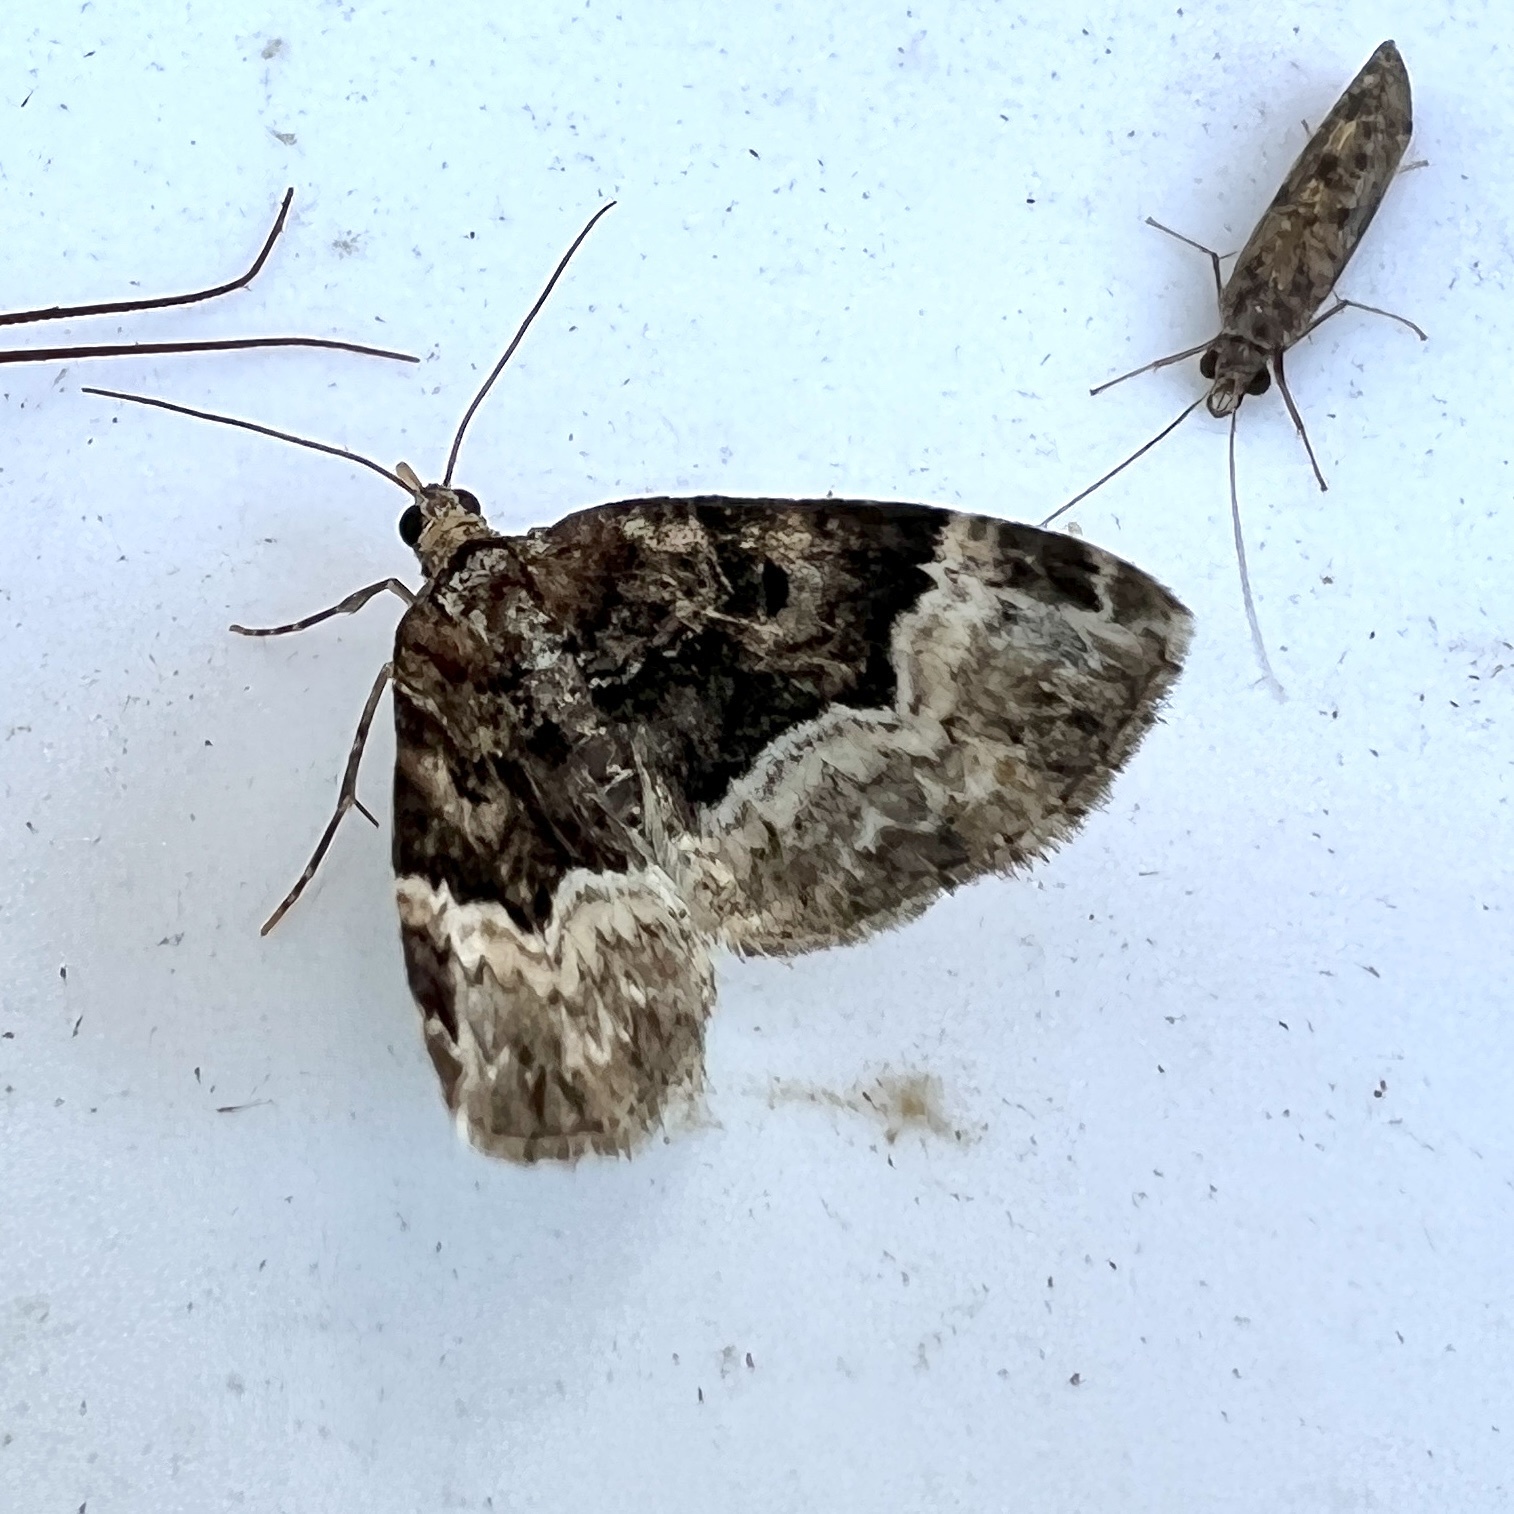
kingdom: Animalia
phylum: Arthropoda
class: Insecta
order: Lepidoptera
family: Geometridae
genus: Euphyia
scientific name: Euphyia intermediata
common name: Sharp-angled carpet
